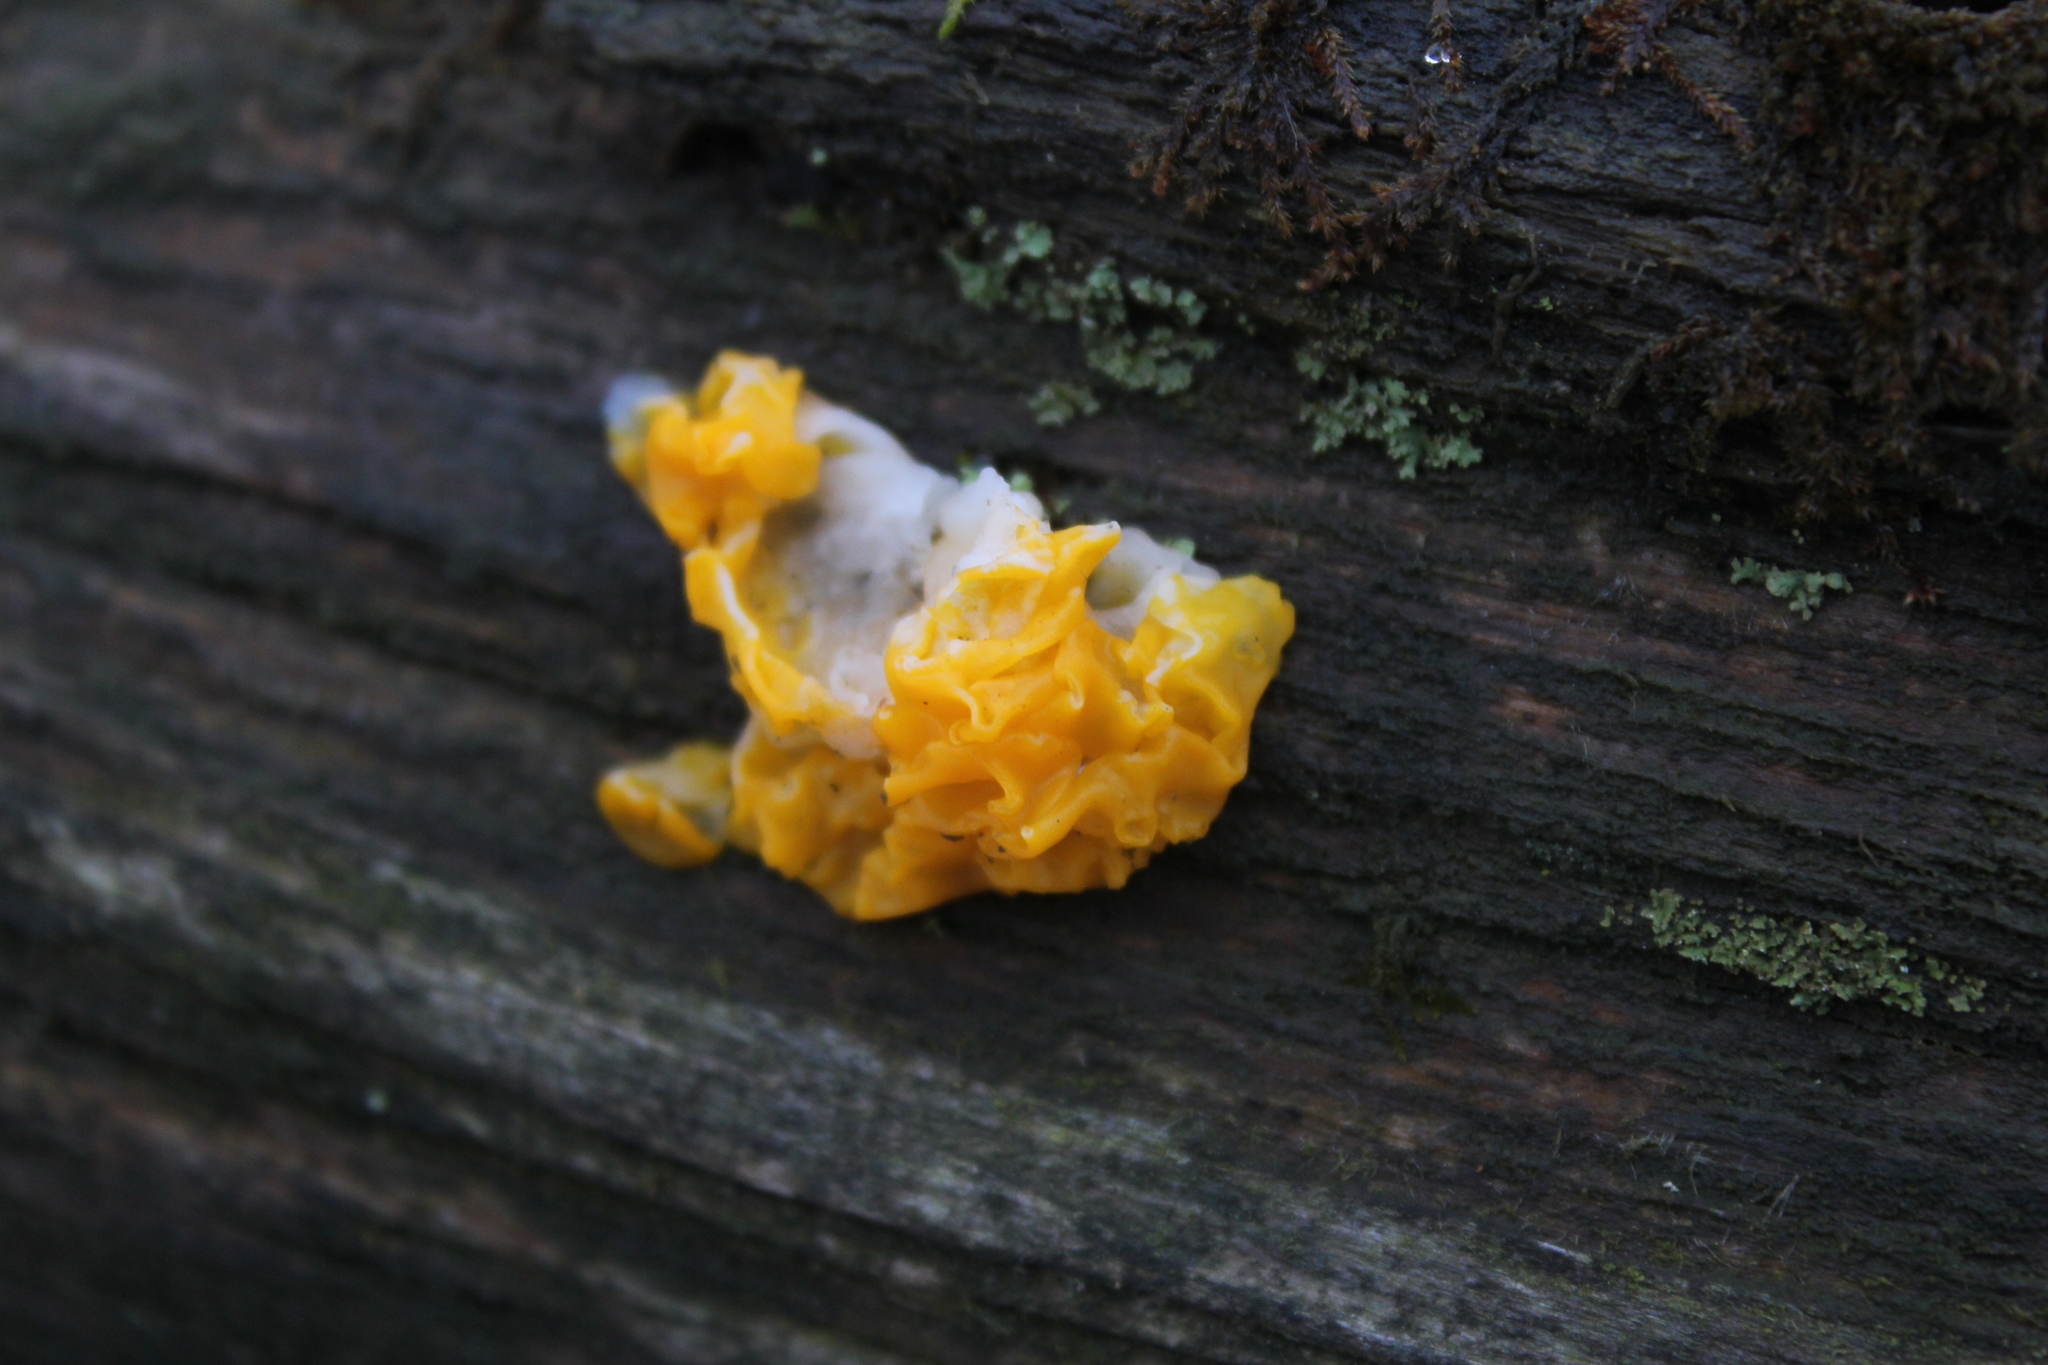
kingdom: Fungi
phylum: Basidiomycota
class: Dacrymycetes
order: Dacrymycetales
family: Dacrymycetaceae
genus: Dacrymyces
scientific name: Dacrymyces chrysospermus
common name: Orange jelly spot
